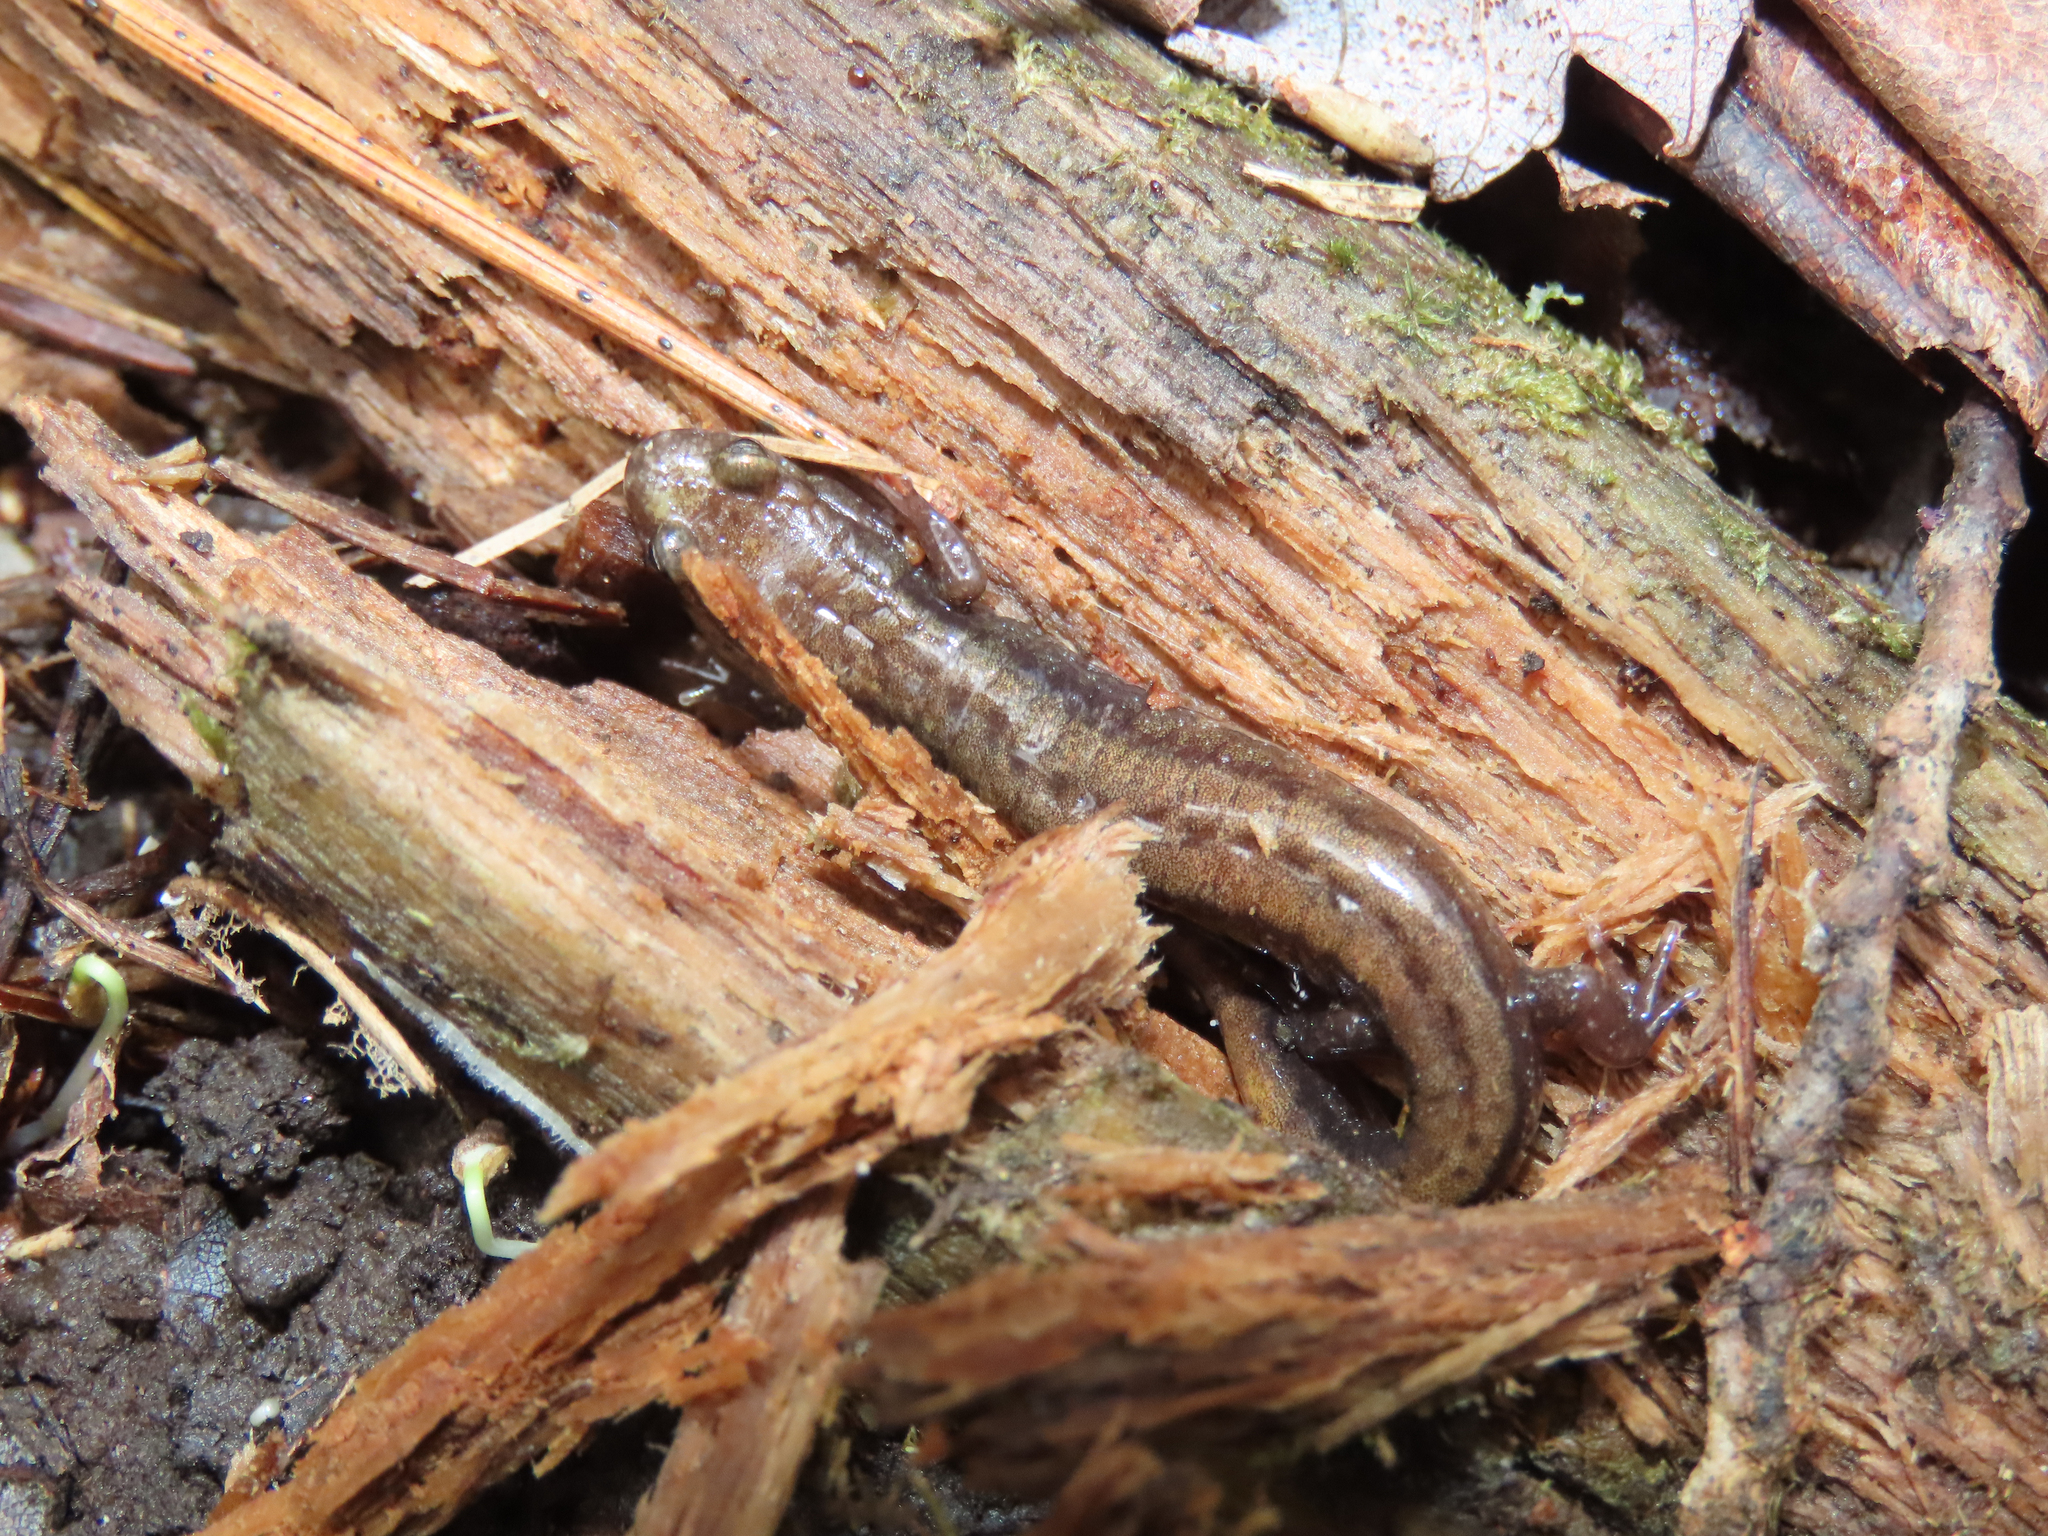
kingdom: Animalia
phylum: Chordata
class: Amphibia
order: Caudata
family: Plethodontidae
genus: Desmognathus
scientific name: Desmognathus ochrophaeus
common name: Allegheny mountain dusky salamander
